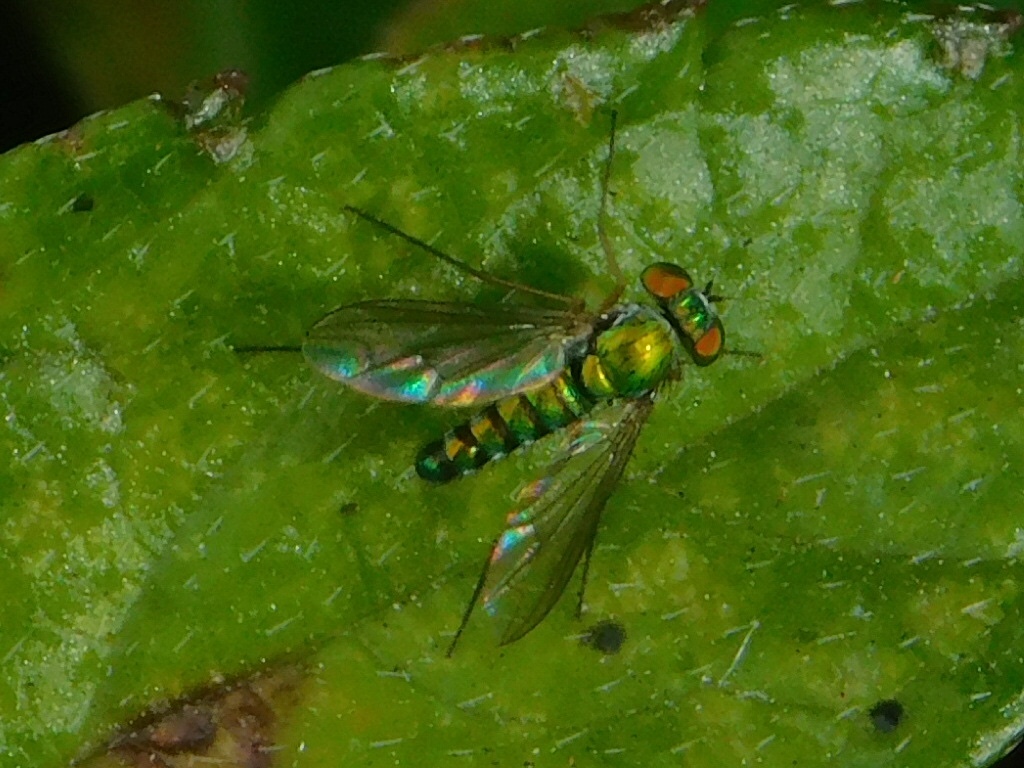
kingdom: Animalia
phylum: Arthropoda
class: Insecta
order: Diptera
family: Dolichopodidae
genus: Condylostylus
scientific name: Condylostylus tonsus
